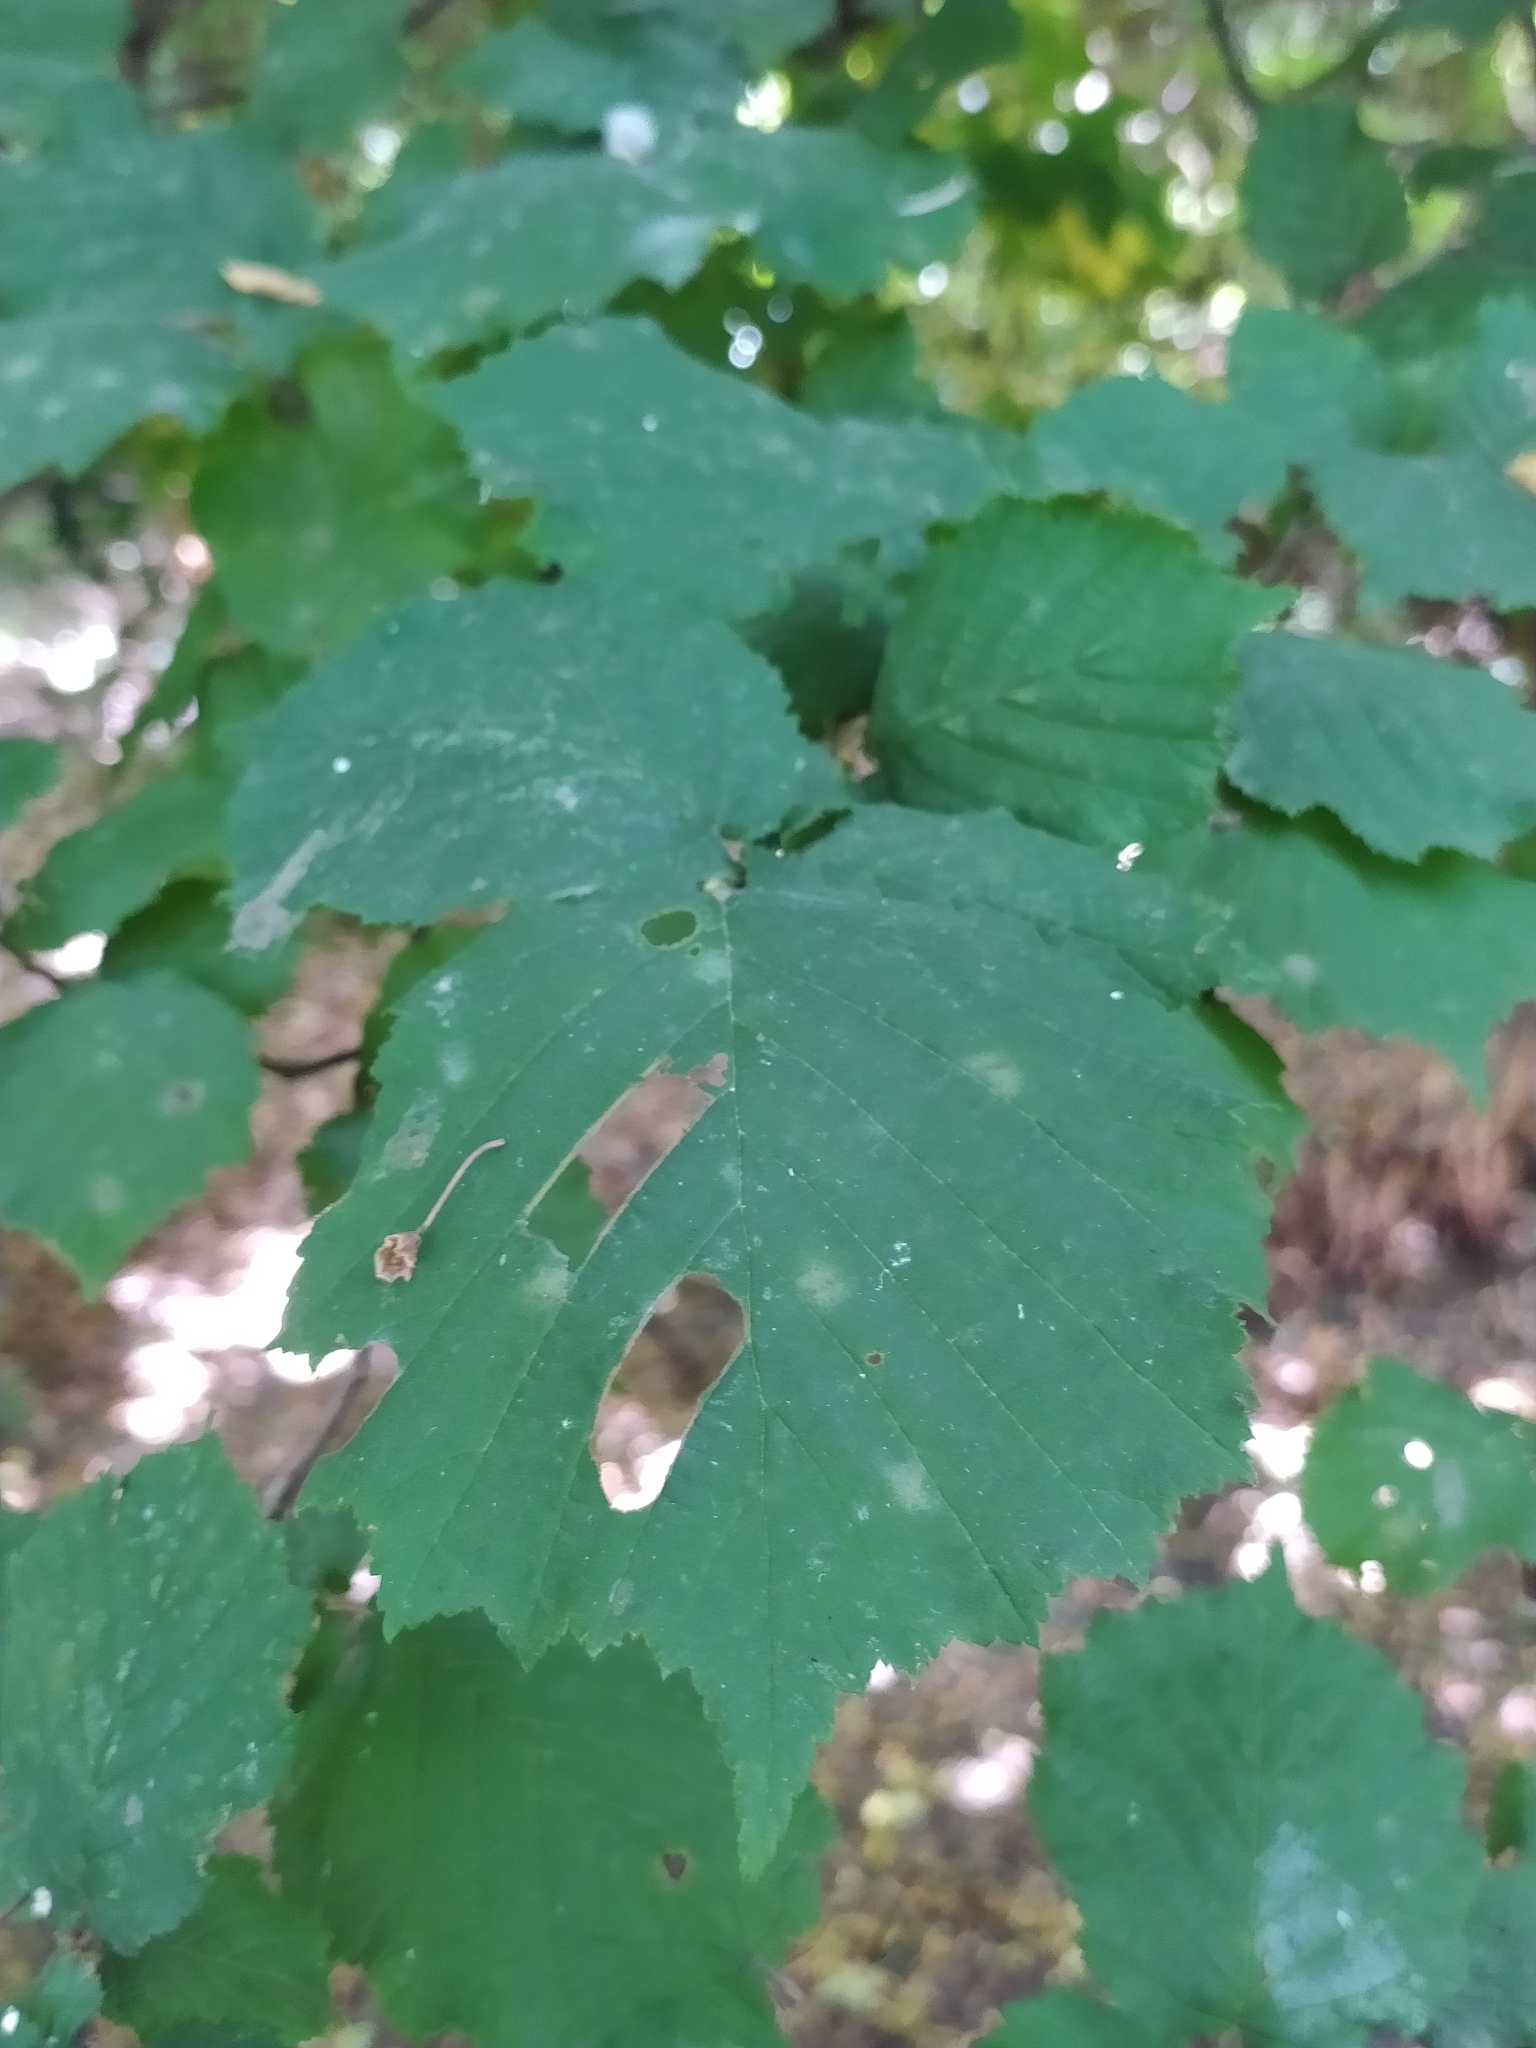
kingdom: Plantae
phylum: Tracheophyta
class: Magnoliopsida
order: Fagales
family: Betulaceae
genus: Corylus
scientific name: Corylus avellana
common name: European hazel
